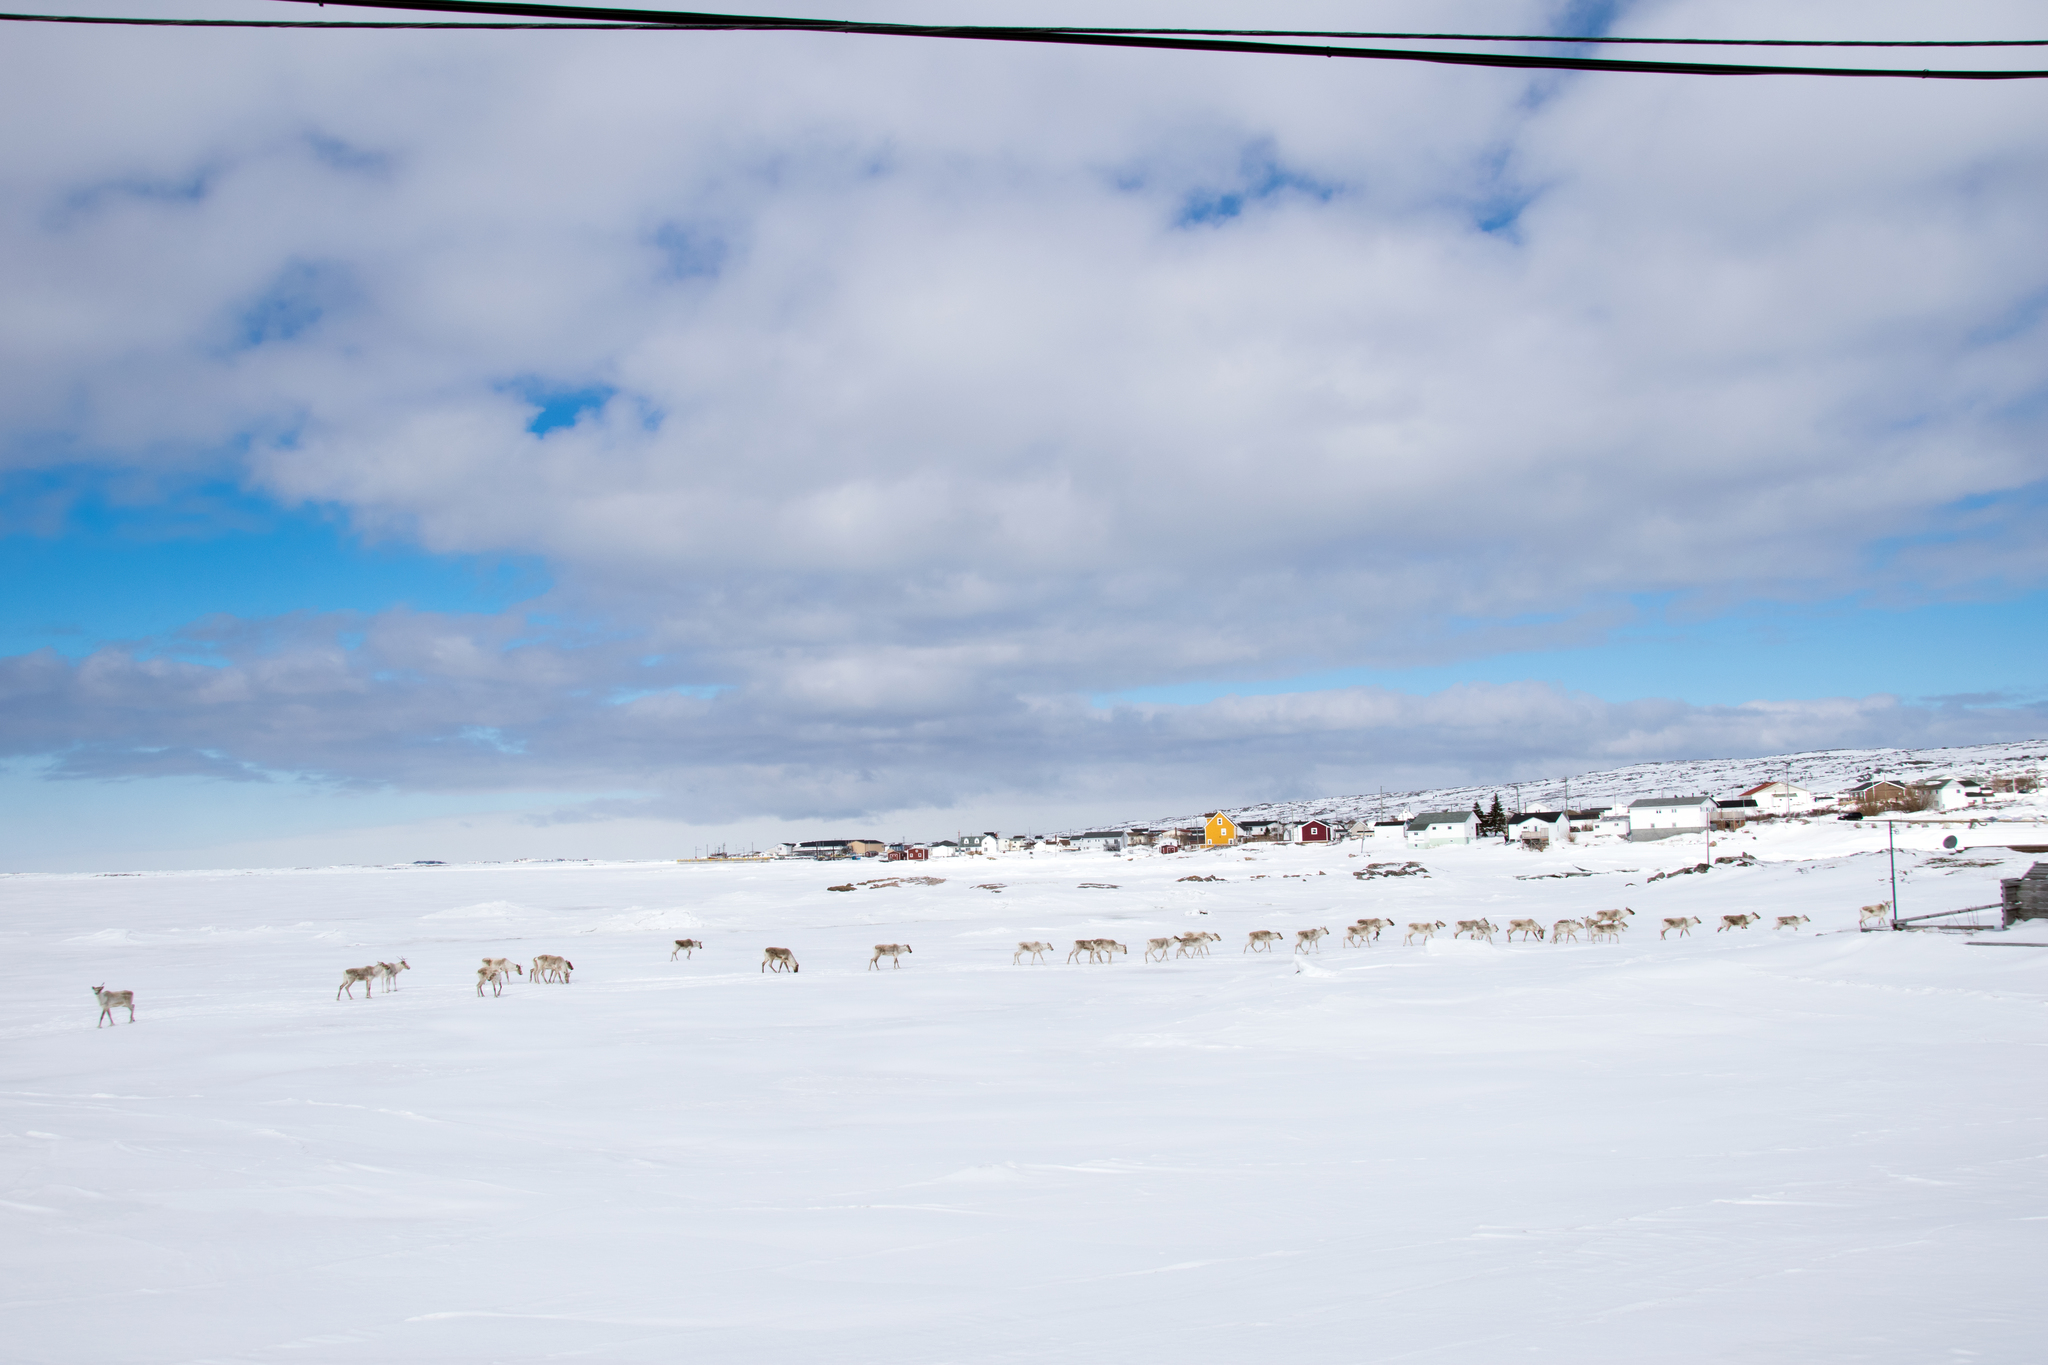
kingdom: Animalia
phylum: Chordata
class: Mammalia
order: Artiodactyla
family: Cervidae
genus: Rangifer
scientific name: Rangifer tarandus
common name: Reindeer
